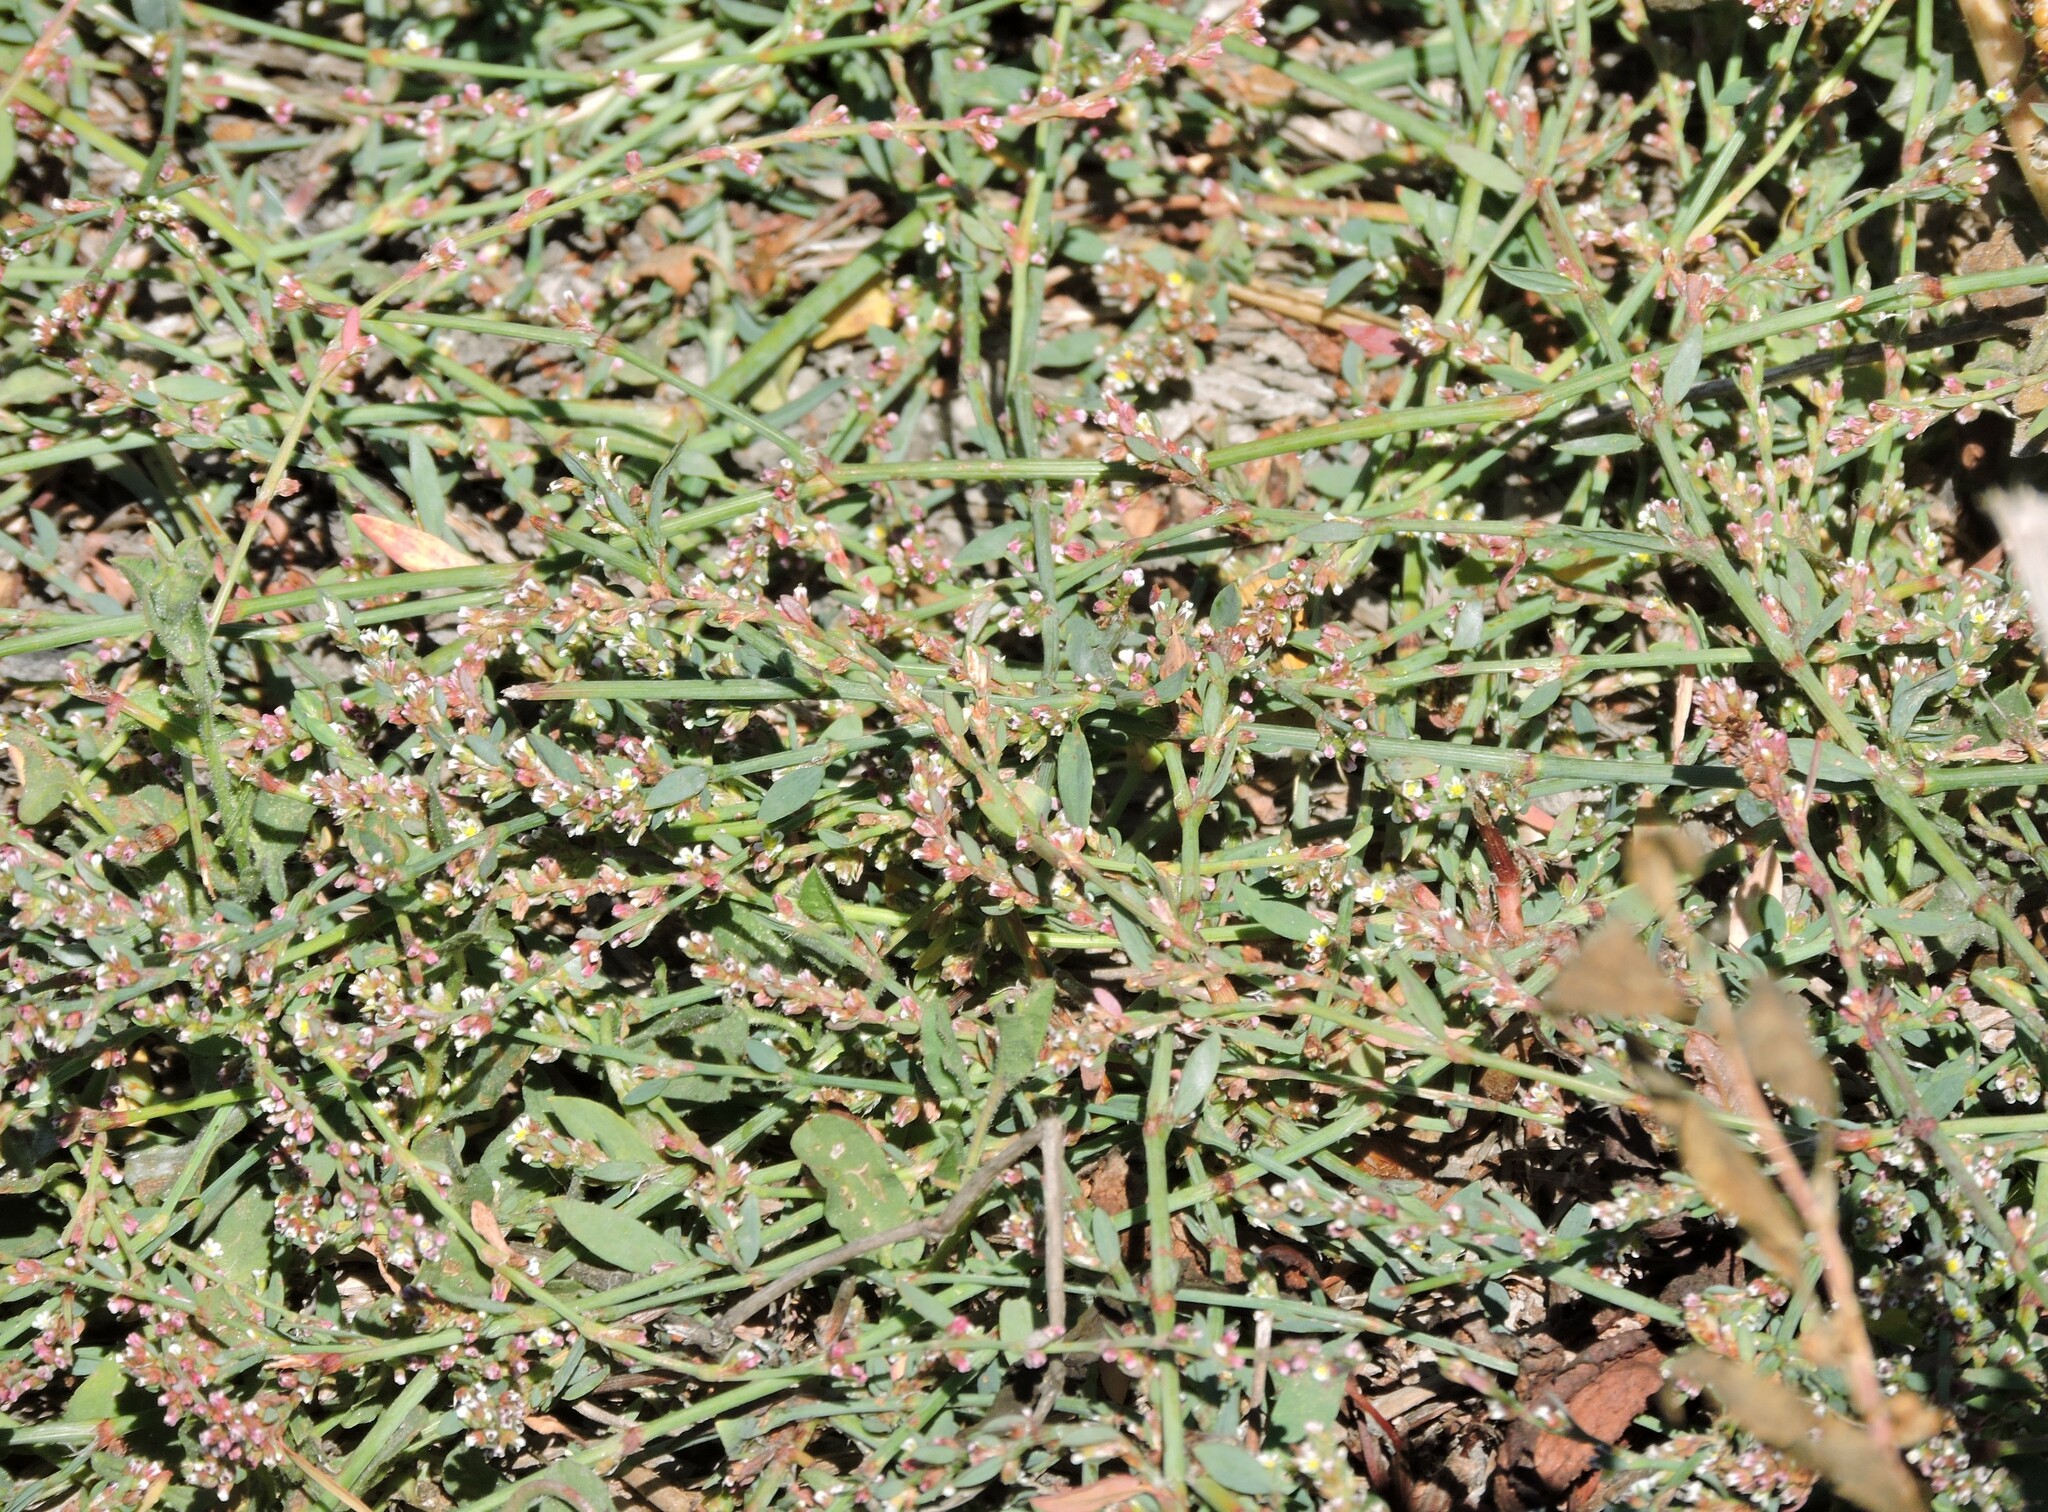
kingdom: Plantae
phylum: Tracheophyta
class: Magnoliopsida
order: Caryophyllales
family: Polygonaceae
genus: Polygonum
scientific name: Polygonum aviculare
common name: Prostrate knotweed
